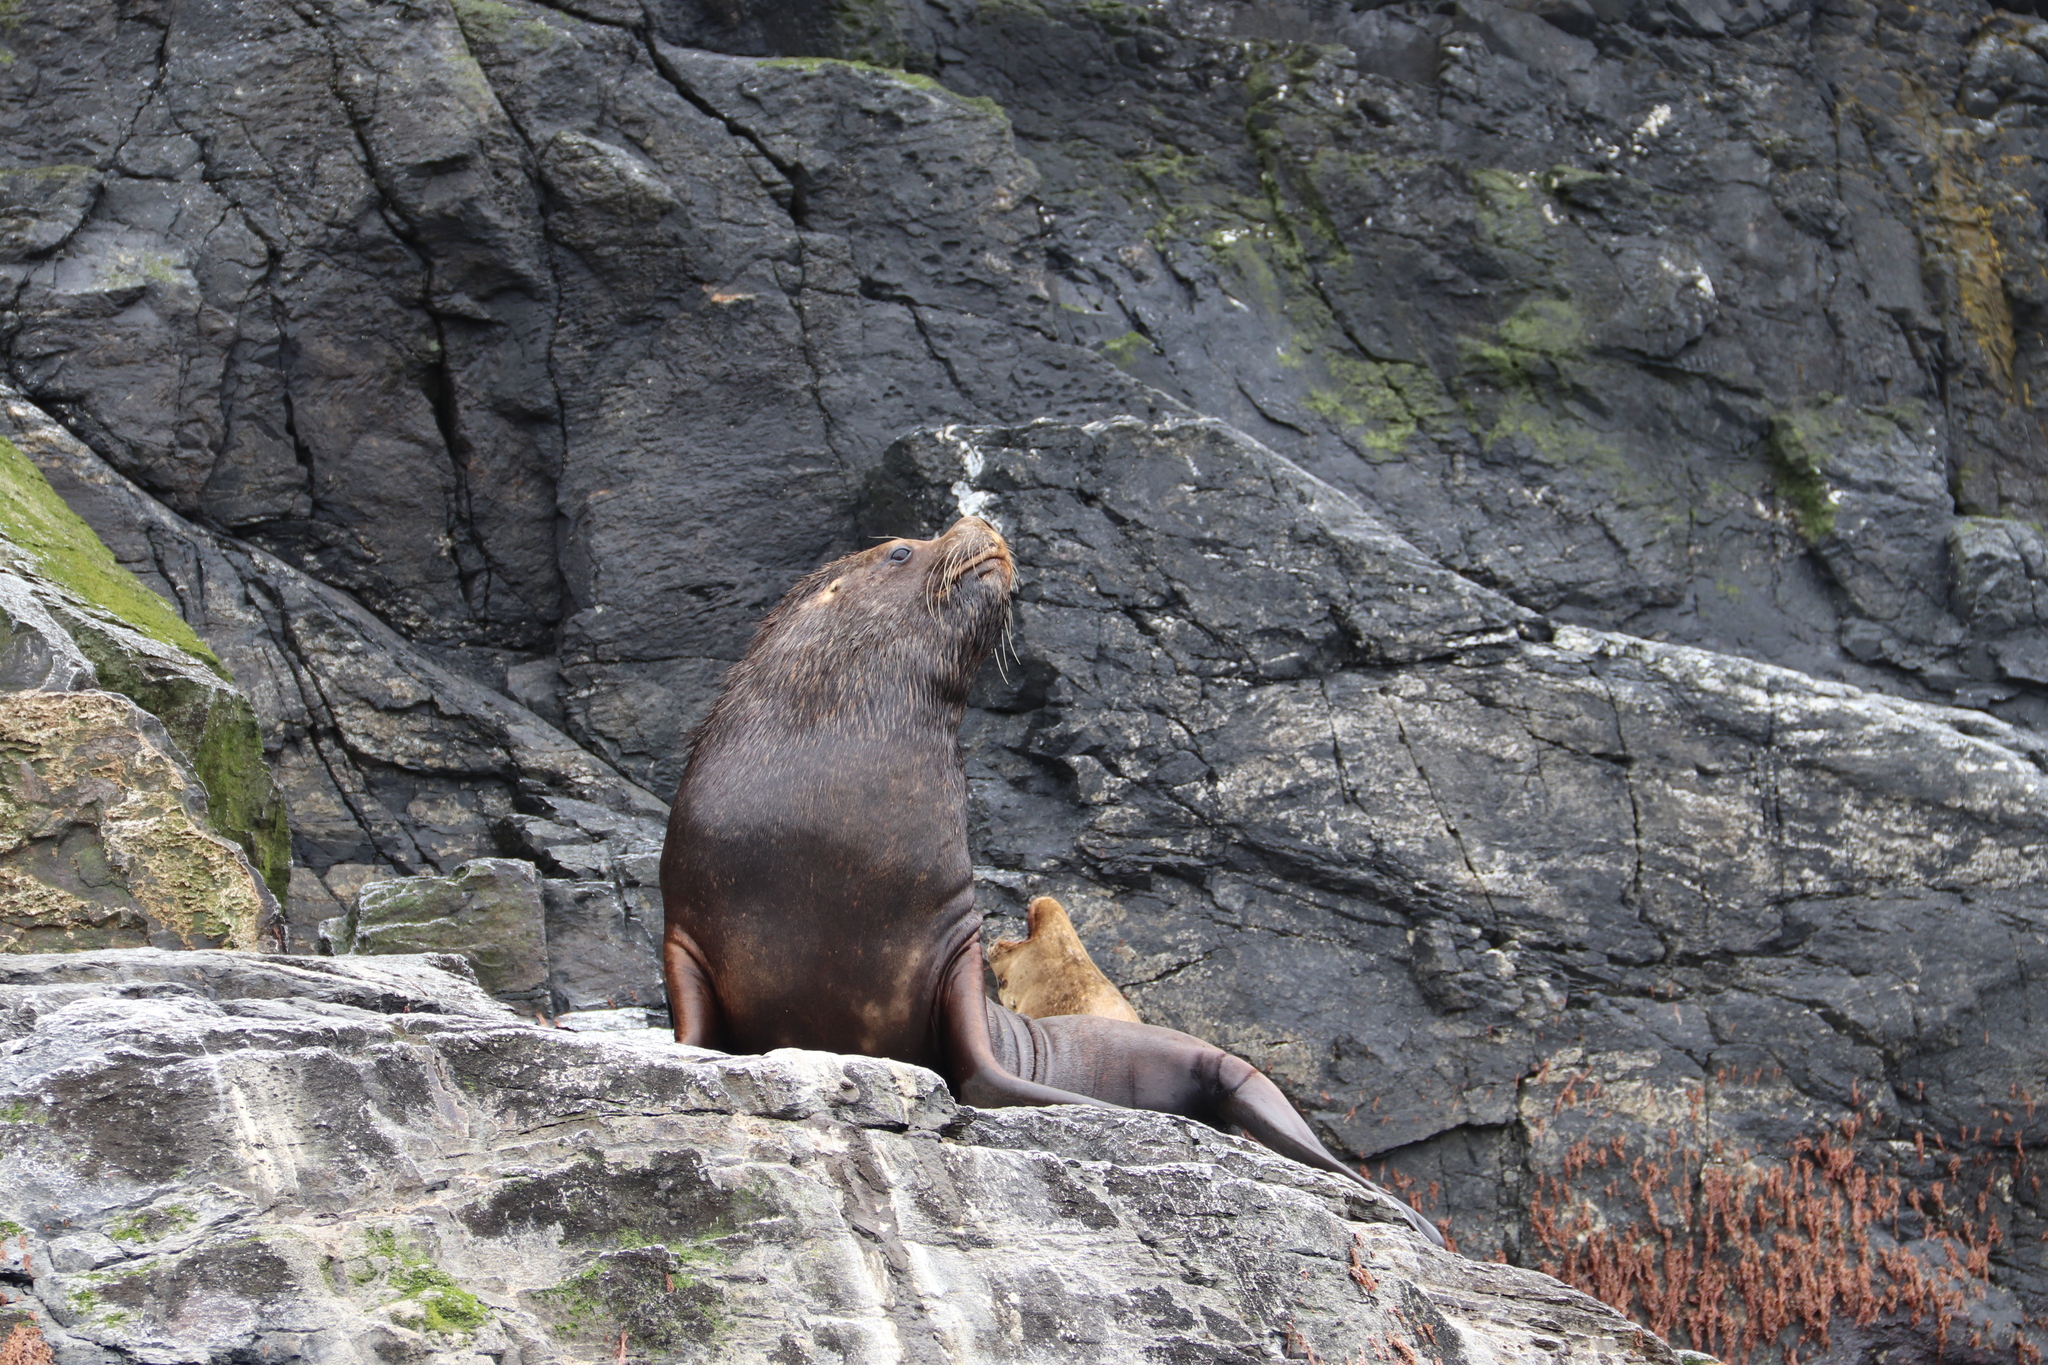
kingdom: Animalia
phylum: Chordata
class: Mammalia
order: Carnivora
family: Otariidae
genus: Otaria
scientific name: Otaria byronia
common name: South american sea lion
